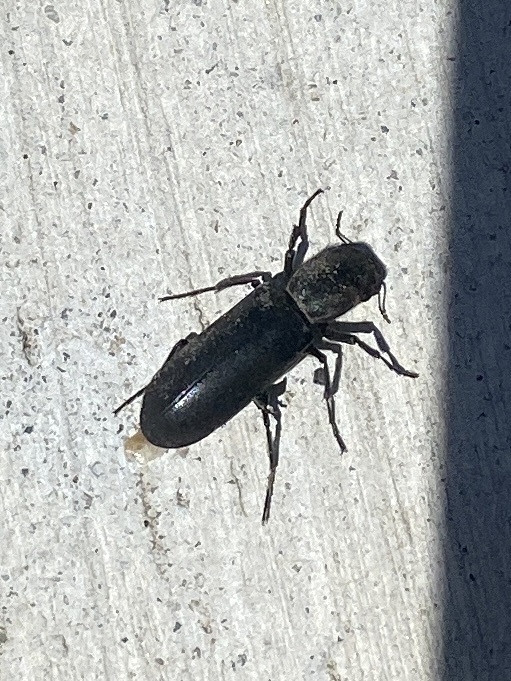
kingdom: Animalia
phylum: Arthropoda
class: Insecta
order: Coleoptera
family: Bostrichidae
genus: Polycaon
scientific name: Polycaon stoutii
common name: Powderpost beetle
